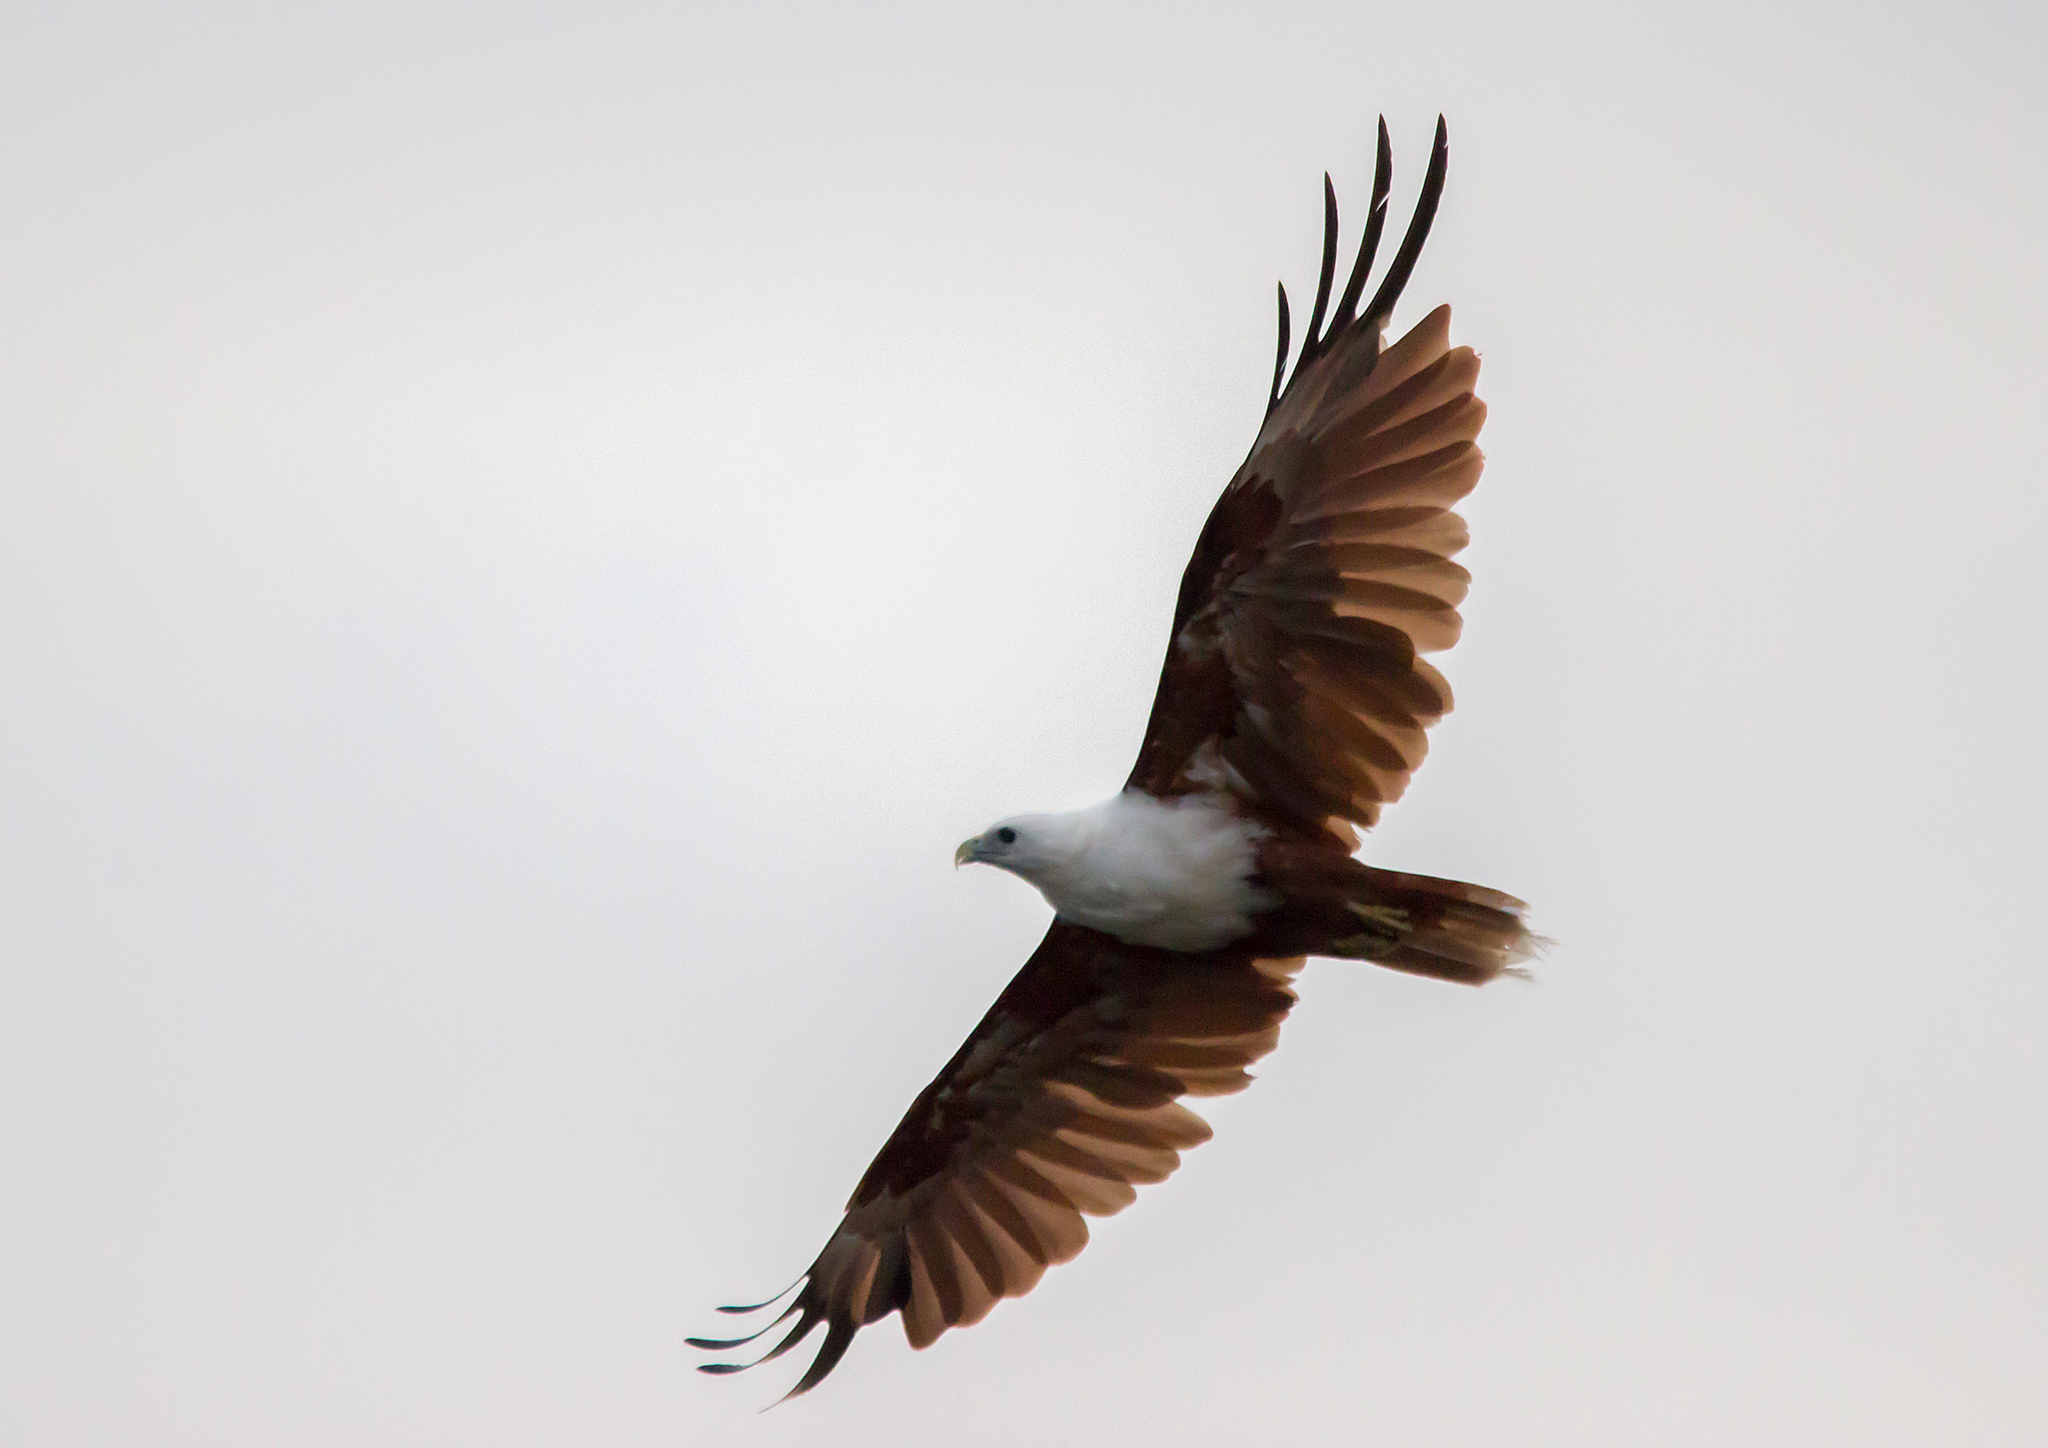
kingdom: Animalia
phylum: Chordata
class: Aves
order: Accipitriformes
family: Accipitridae
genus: Haliastur
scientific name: Haliastur indus
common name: Brahminy kite
